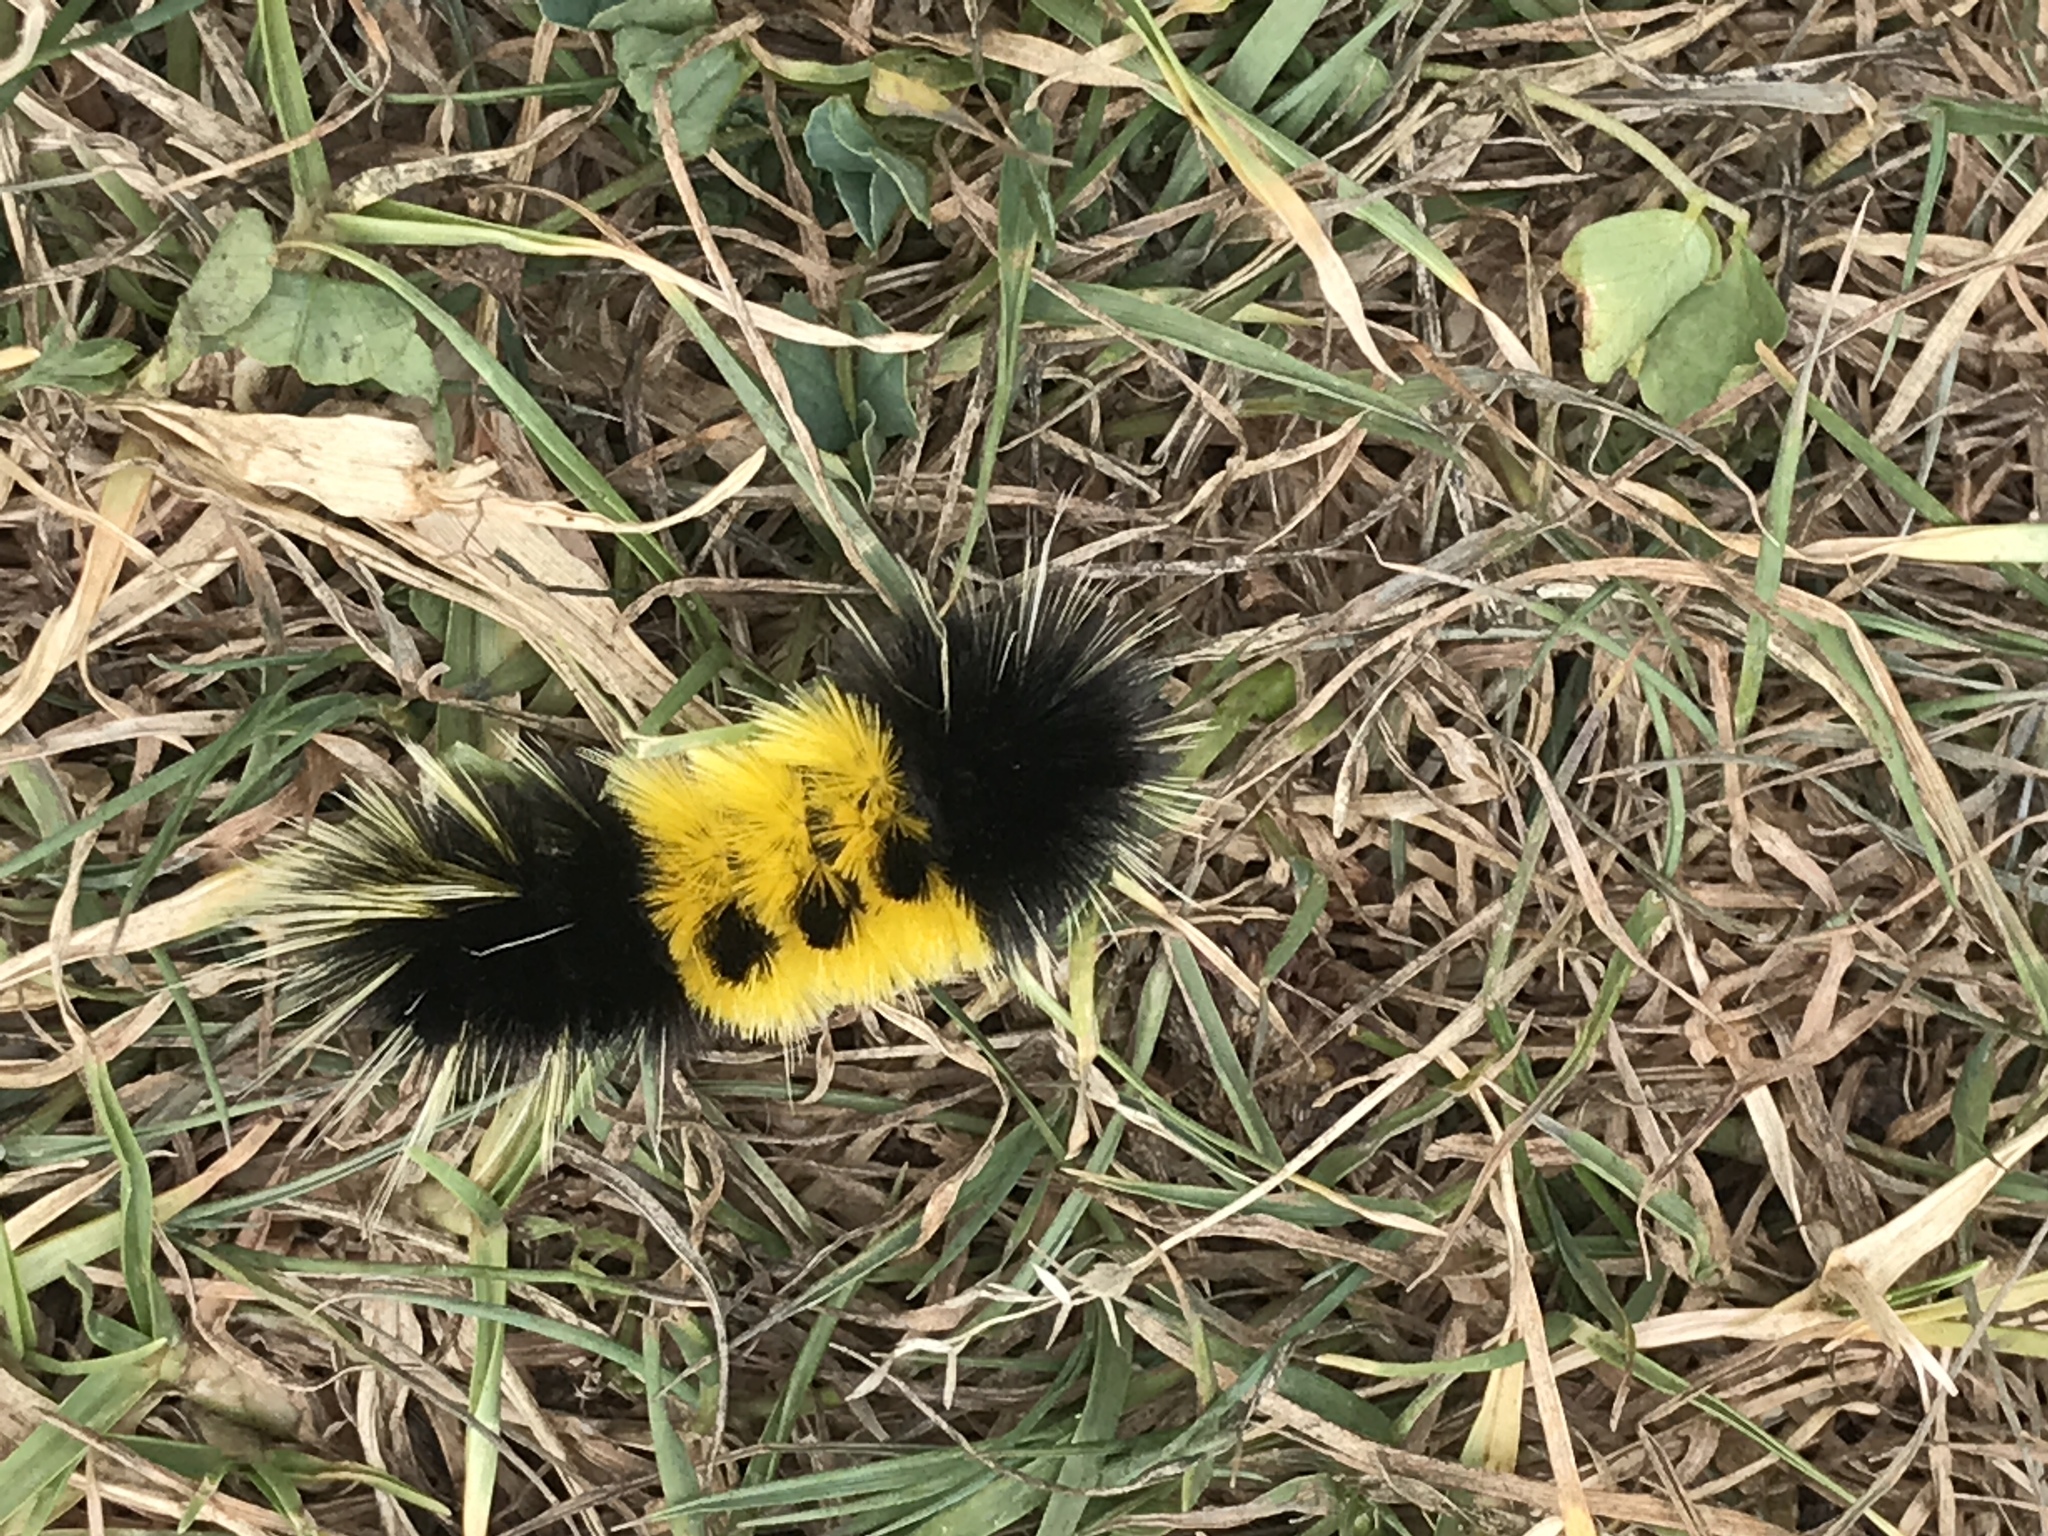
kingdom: Animalia
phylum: Arthropoda
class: Insecta
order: Lepidoptera
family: Erebidae
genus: Lophocampa
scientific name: Lophocampa maculata
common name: Spotted tussock moth
